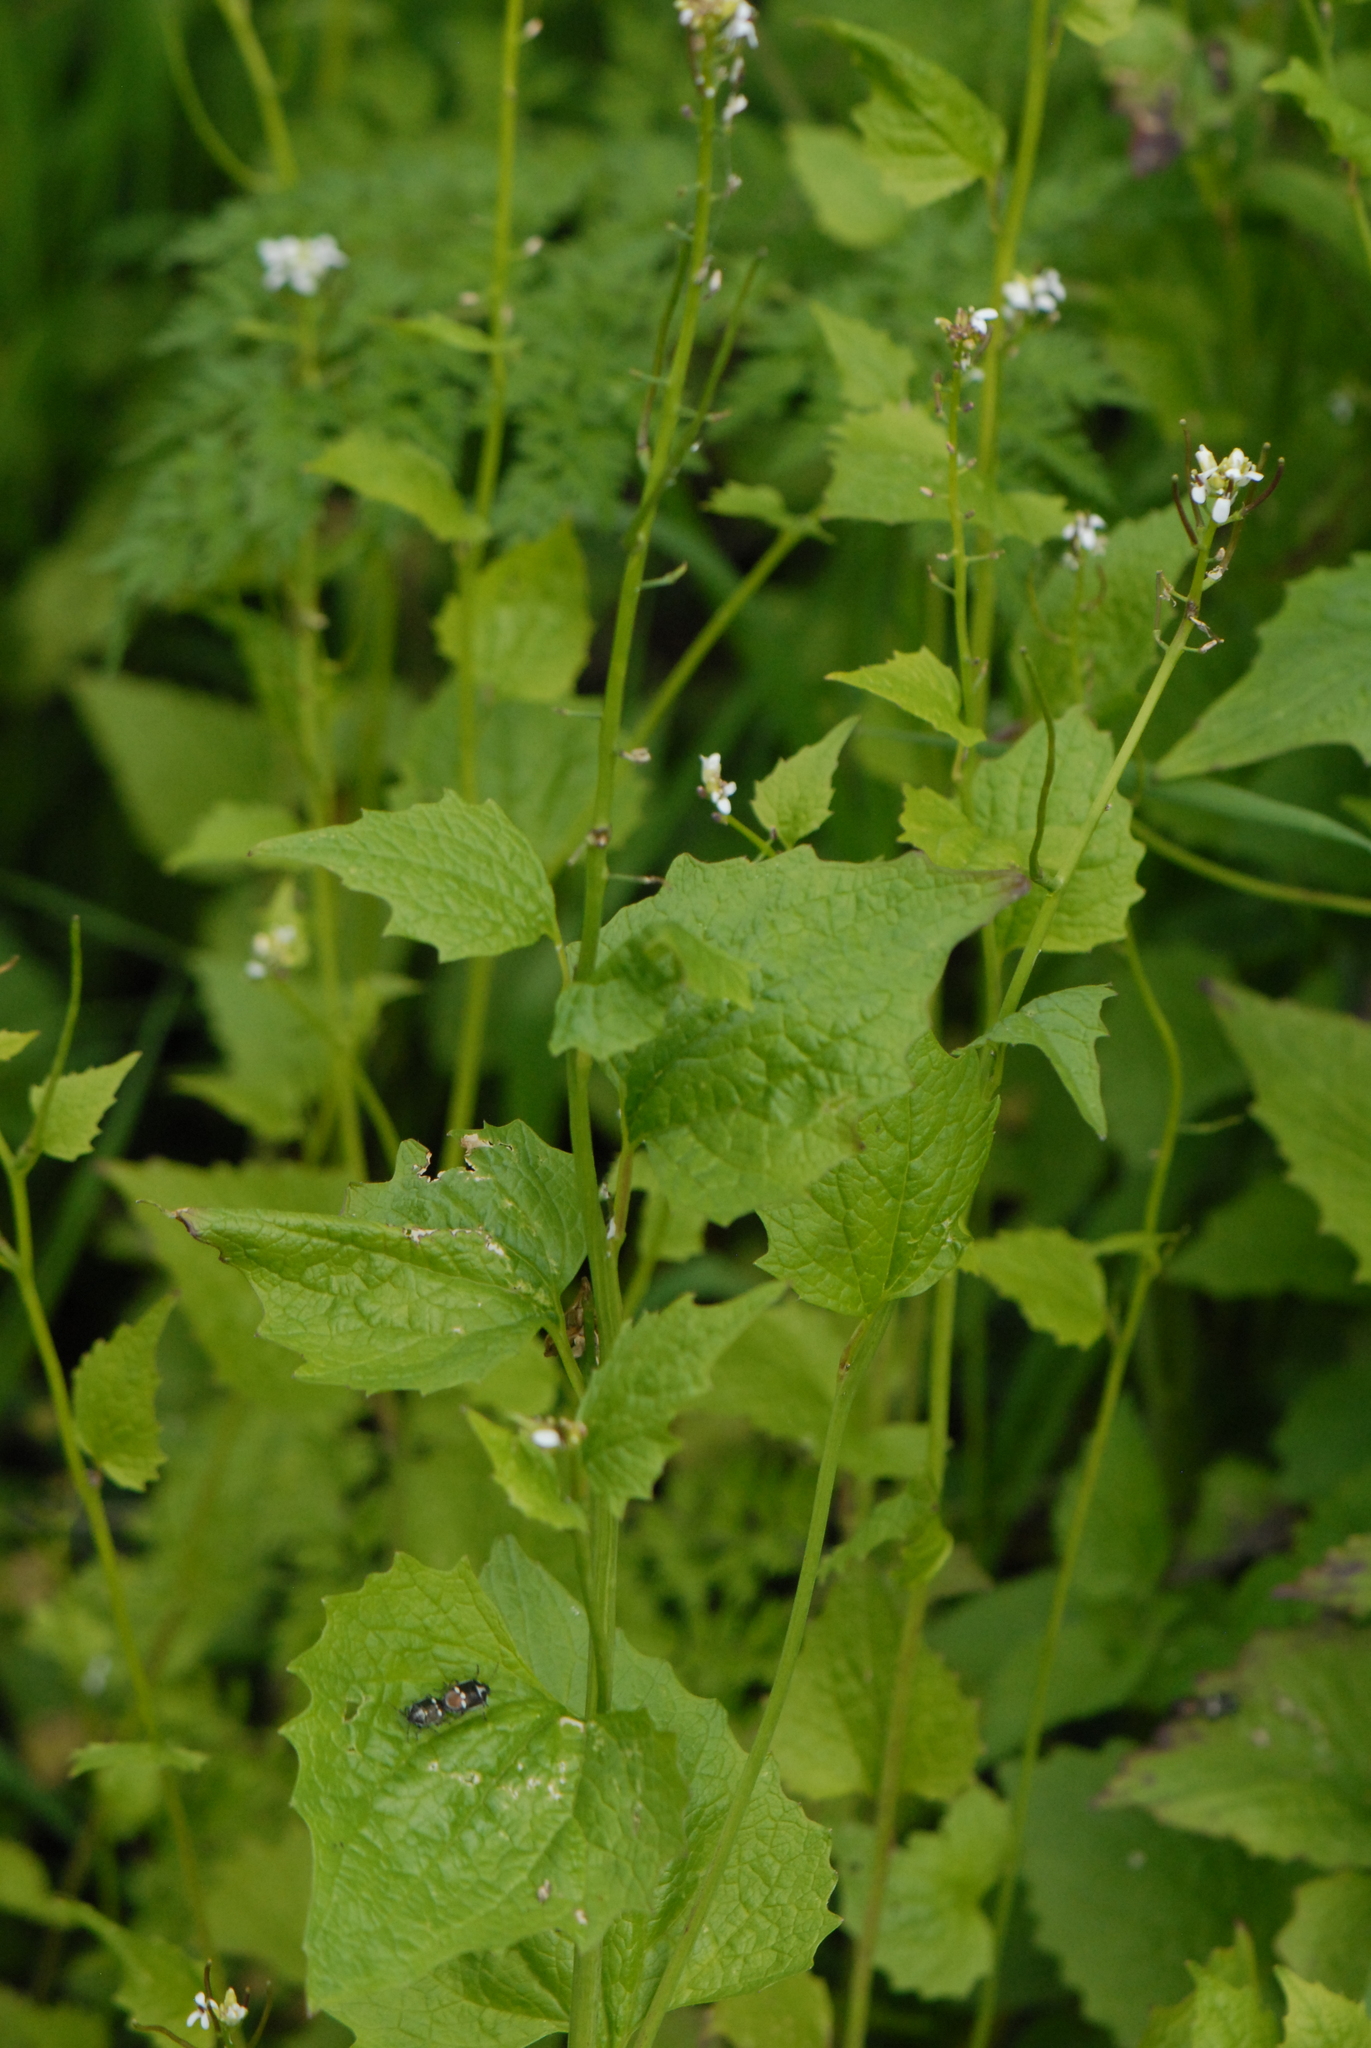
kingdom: Plantae
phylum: Tracheophyta
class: Magnoliopsida
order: Brassicales
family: Brassicaceae
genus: Alliaria
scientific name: Alliaria petiolata
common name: Garlic mustard
